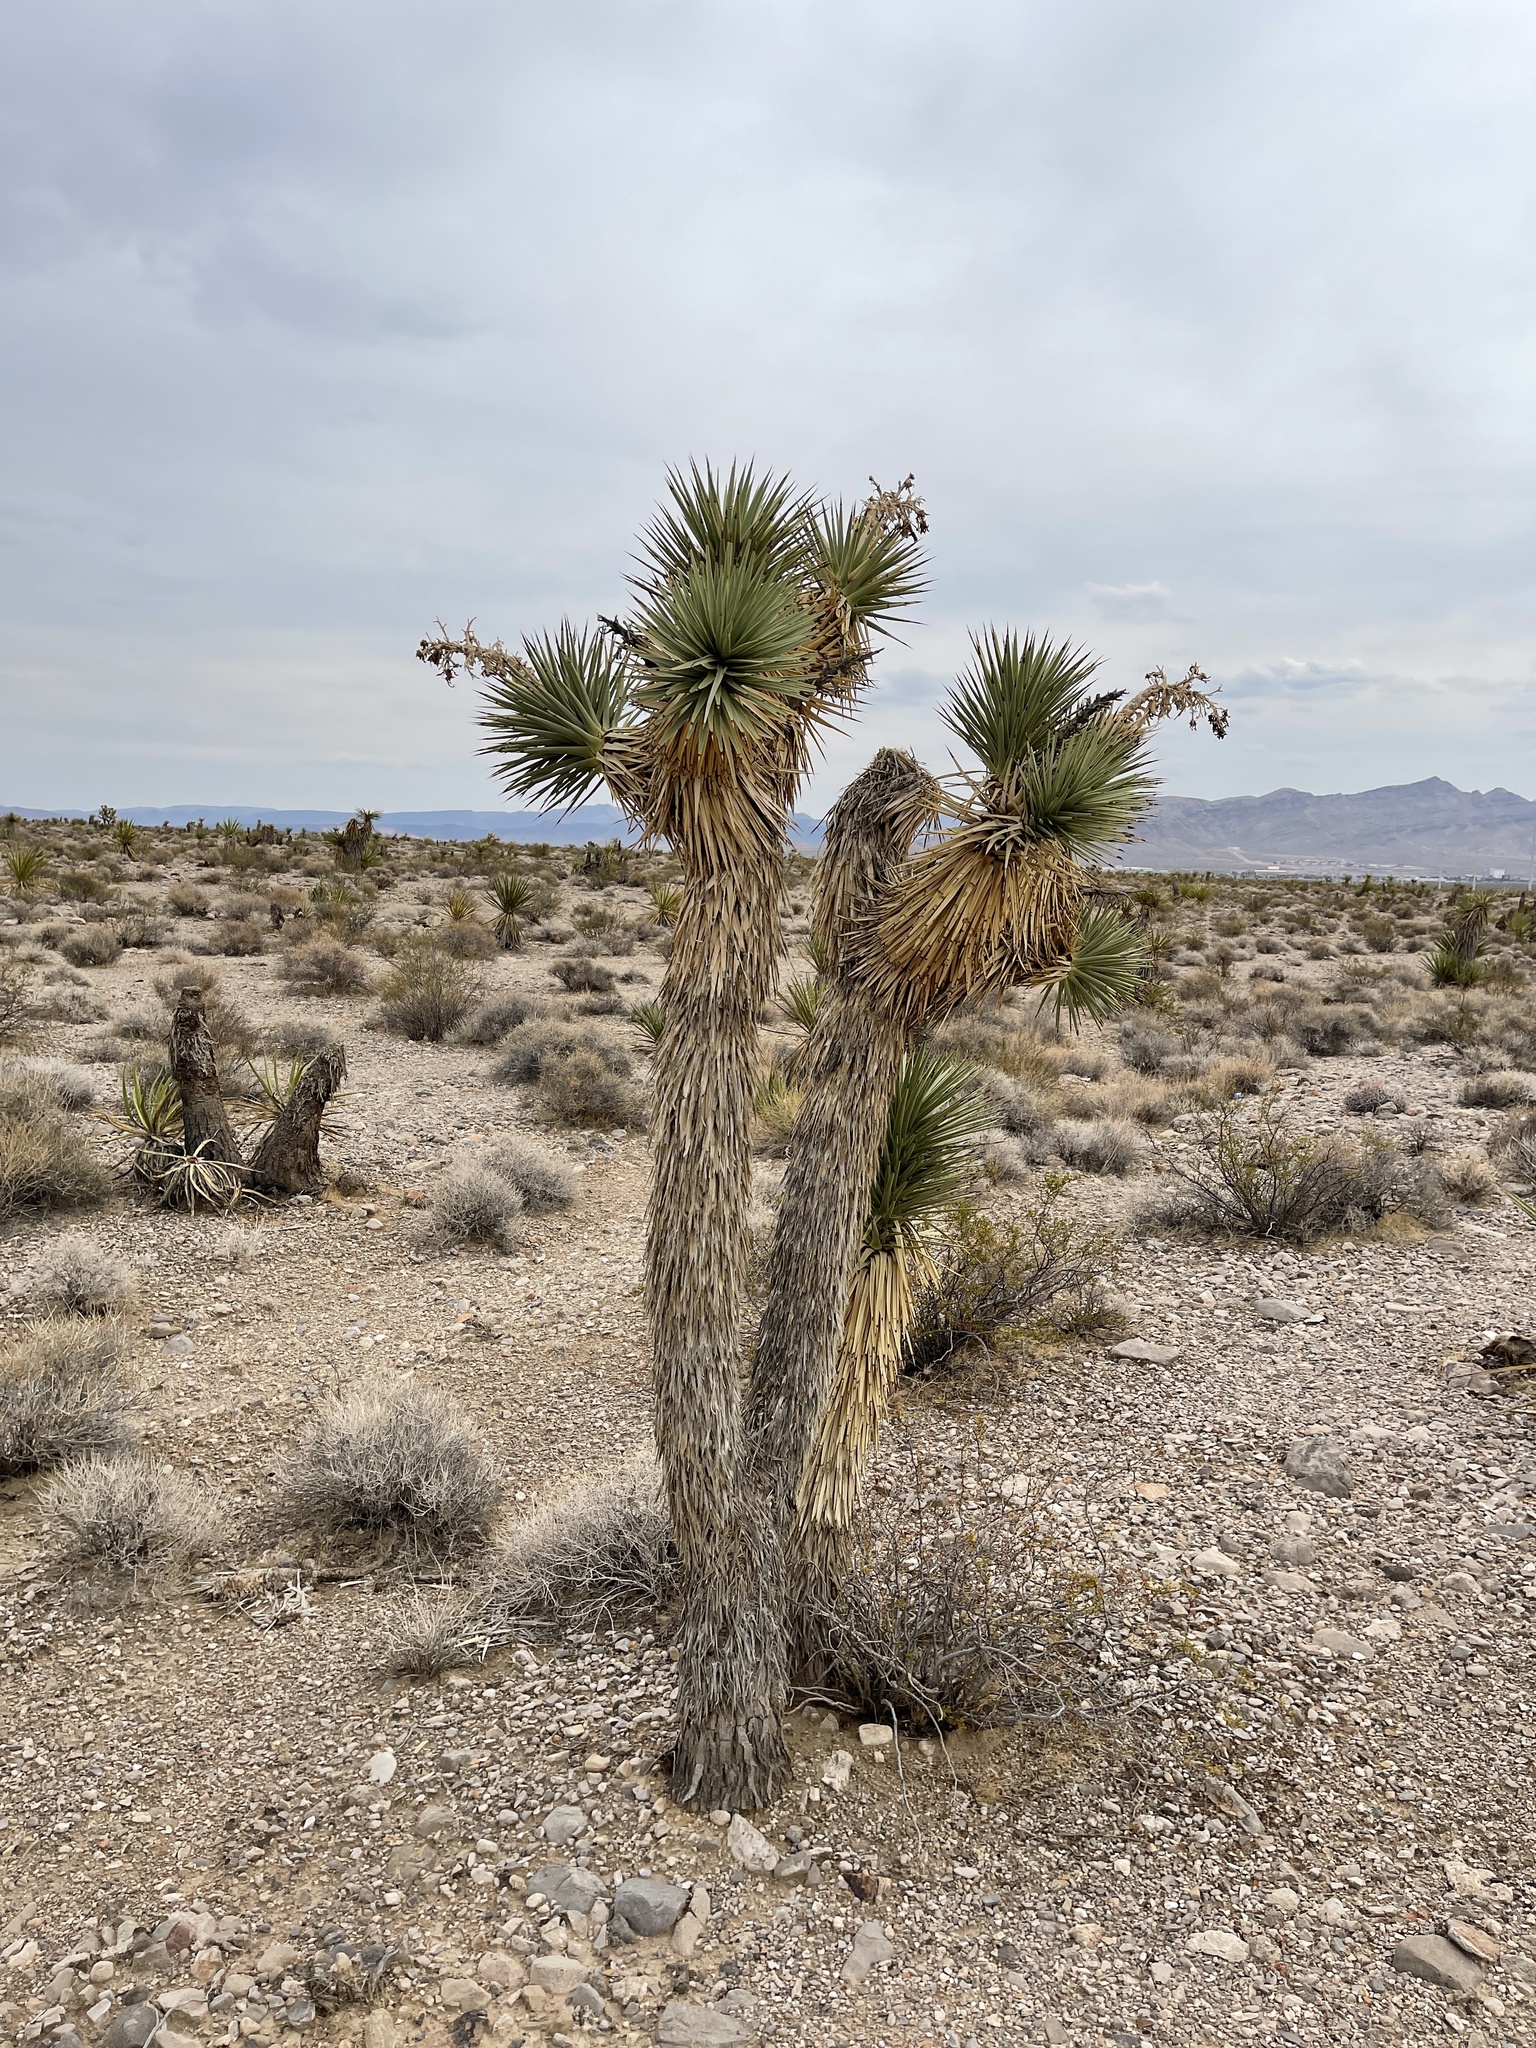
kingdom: Plantae
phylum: Tracheophyta
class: Liliopsida
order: Asparagales
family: Asparagaceae
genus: Yucca
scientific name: Yucca brevifolia
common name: Joshua tree
